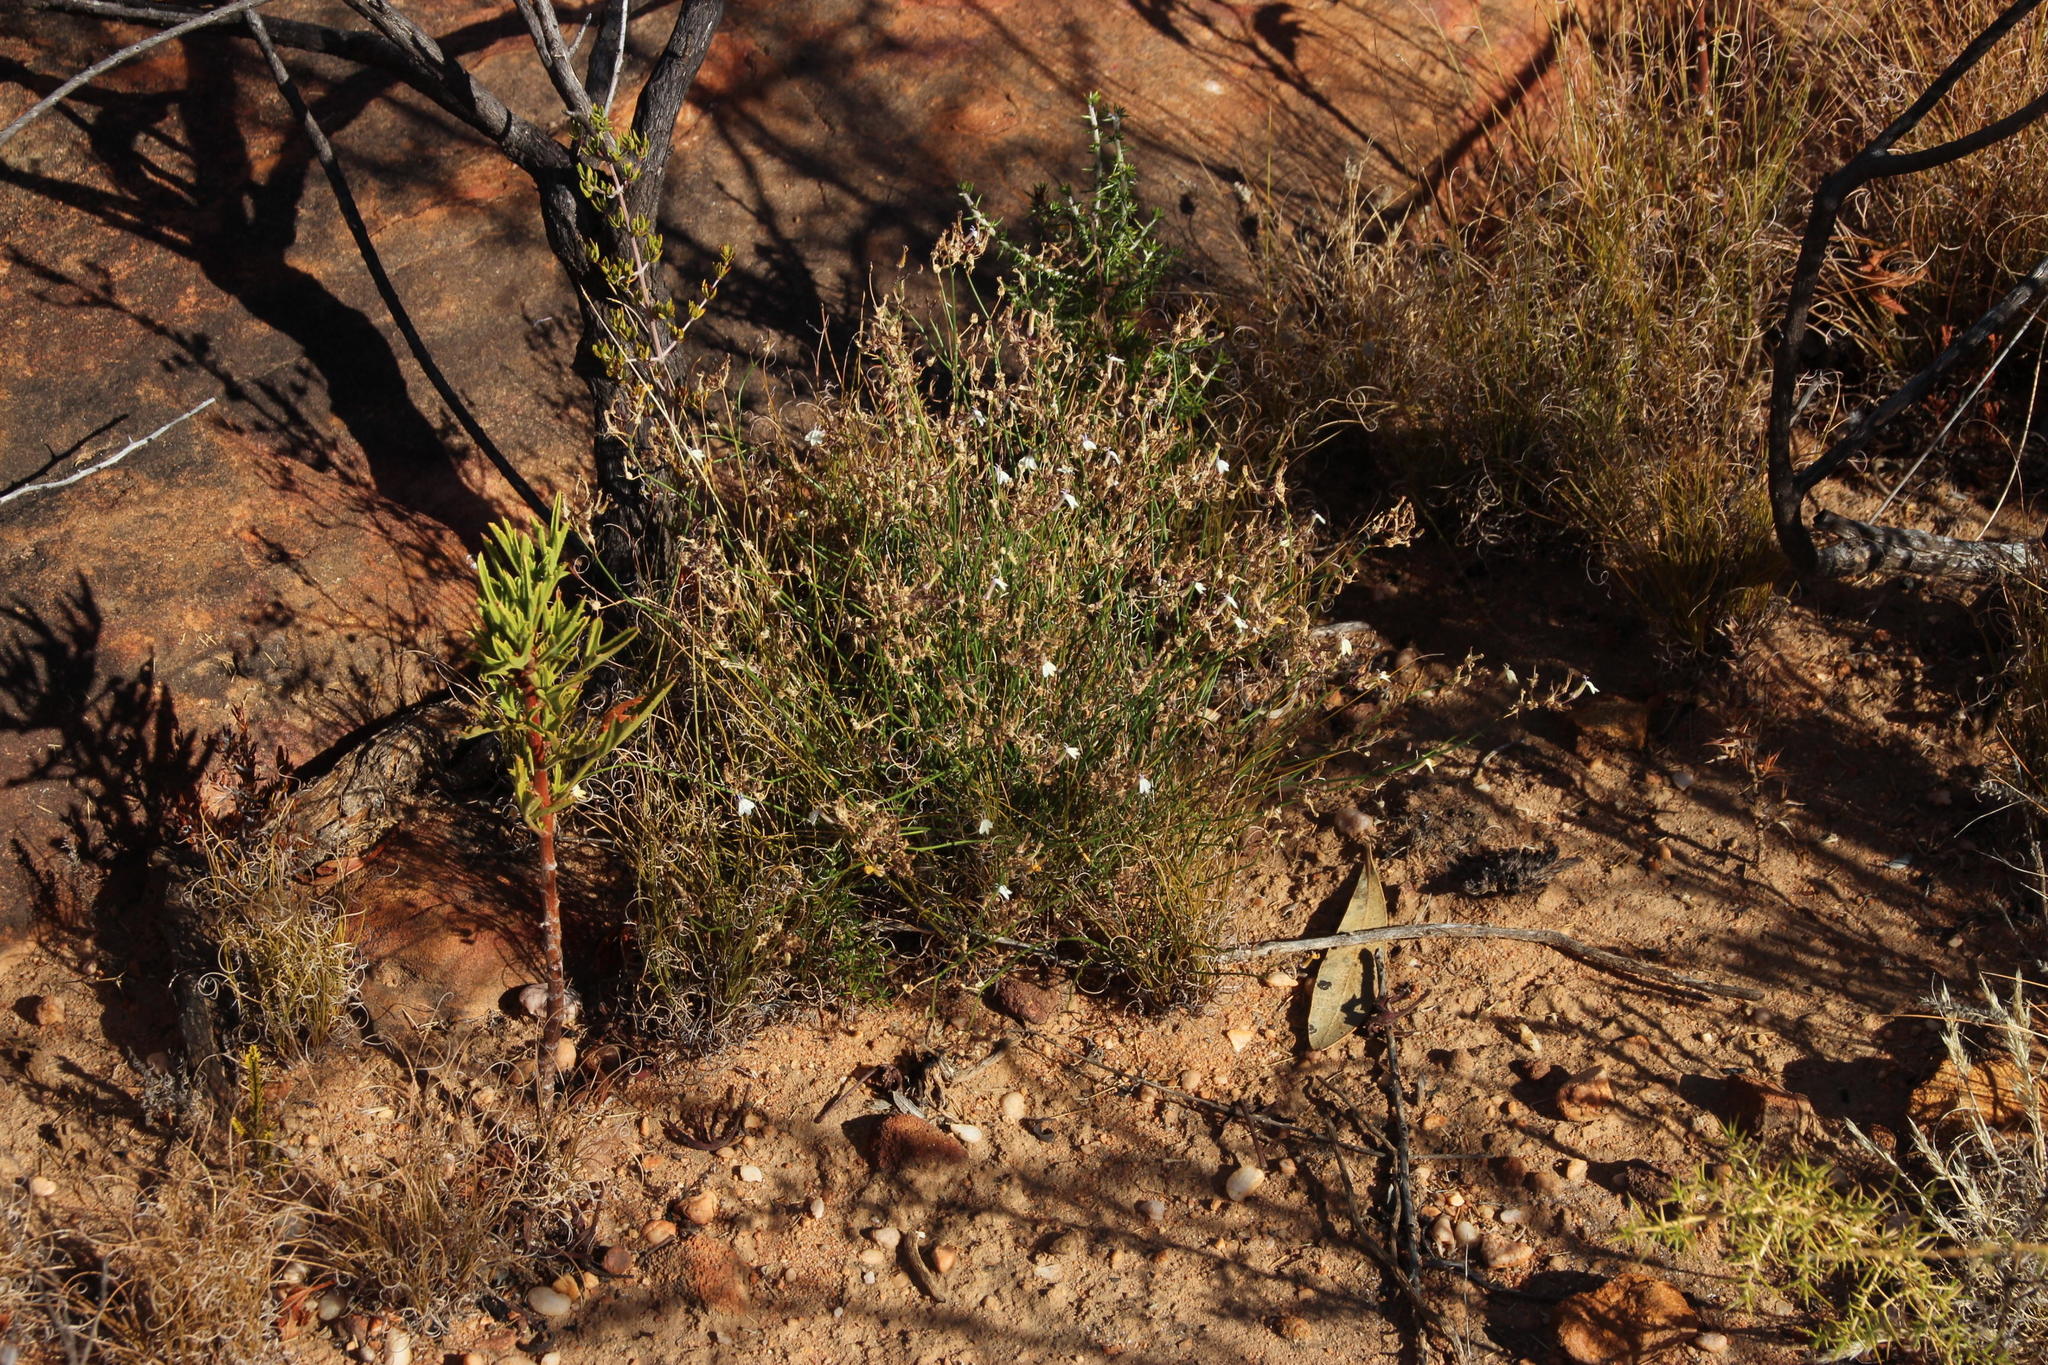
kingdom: Plantae
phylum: Tracheophyta
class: Magnoliopsida
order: Asterales
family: Campanulaceae
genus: Lobelia
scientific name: Lobelia capillifolia
